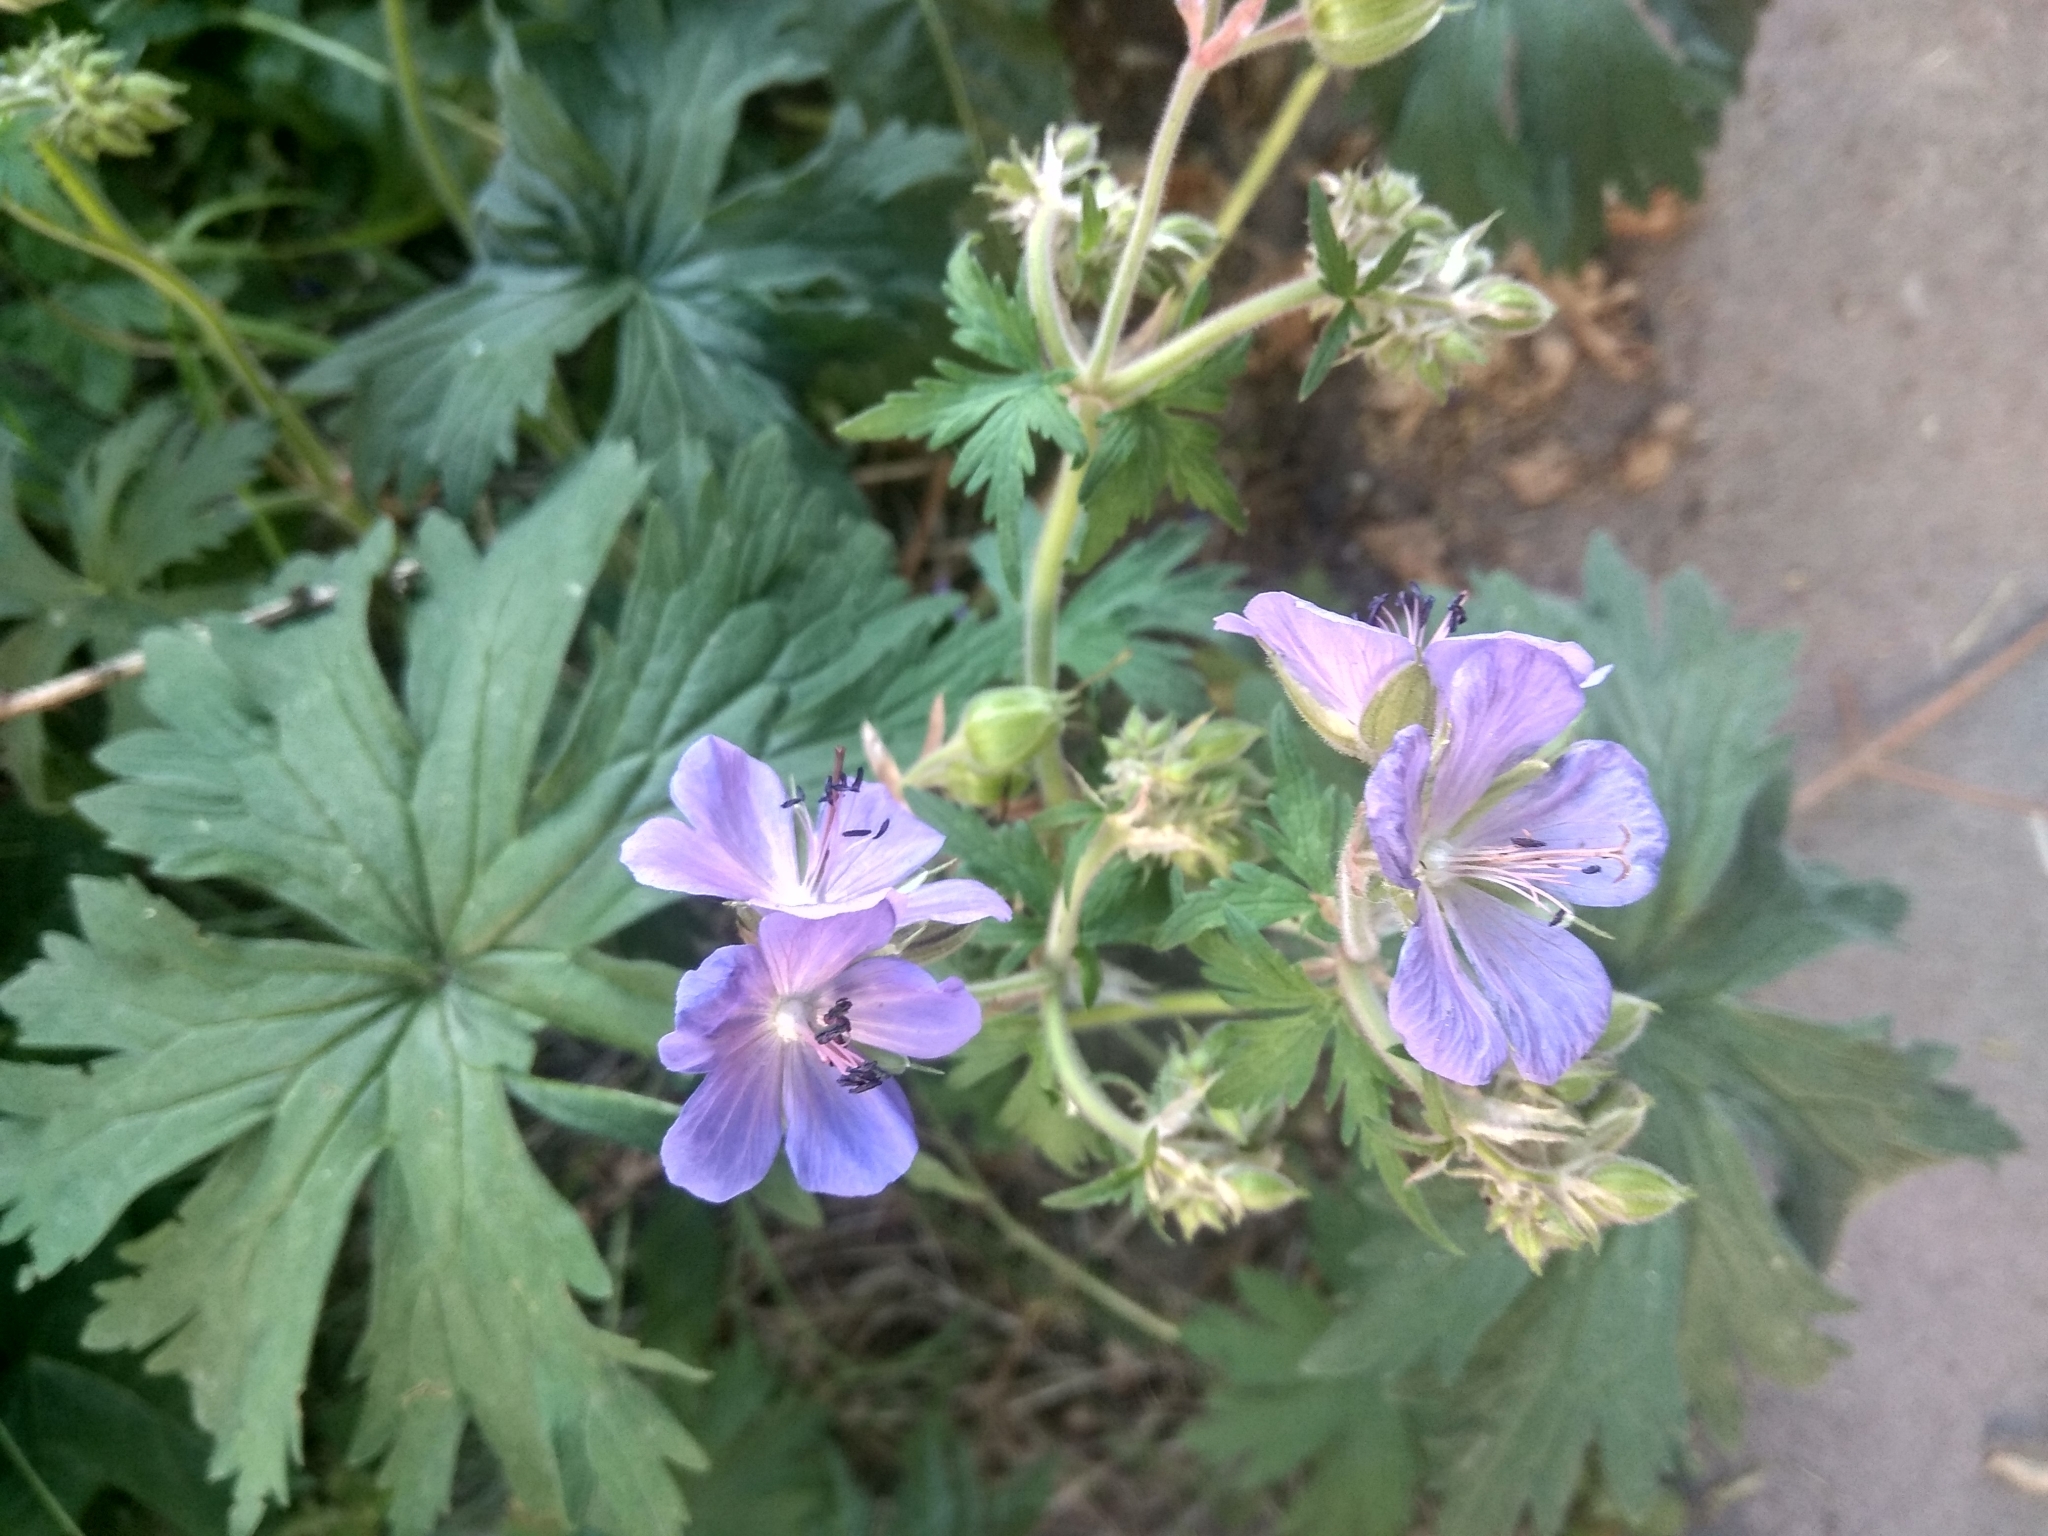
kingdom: Plantae
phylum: Tracheophyta
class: Magnoliopsida
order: Geraniales
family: Geraniaceae
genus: Geranium
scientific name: Geranium pratense
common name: Meadow crane's-bill
